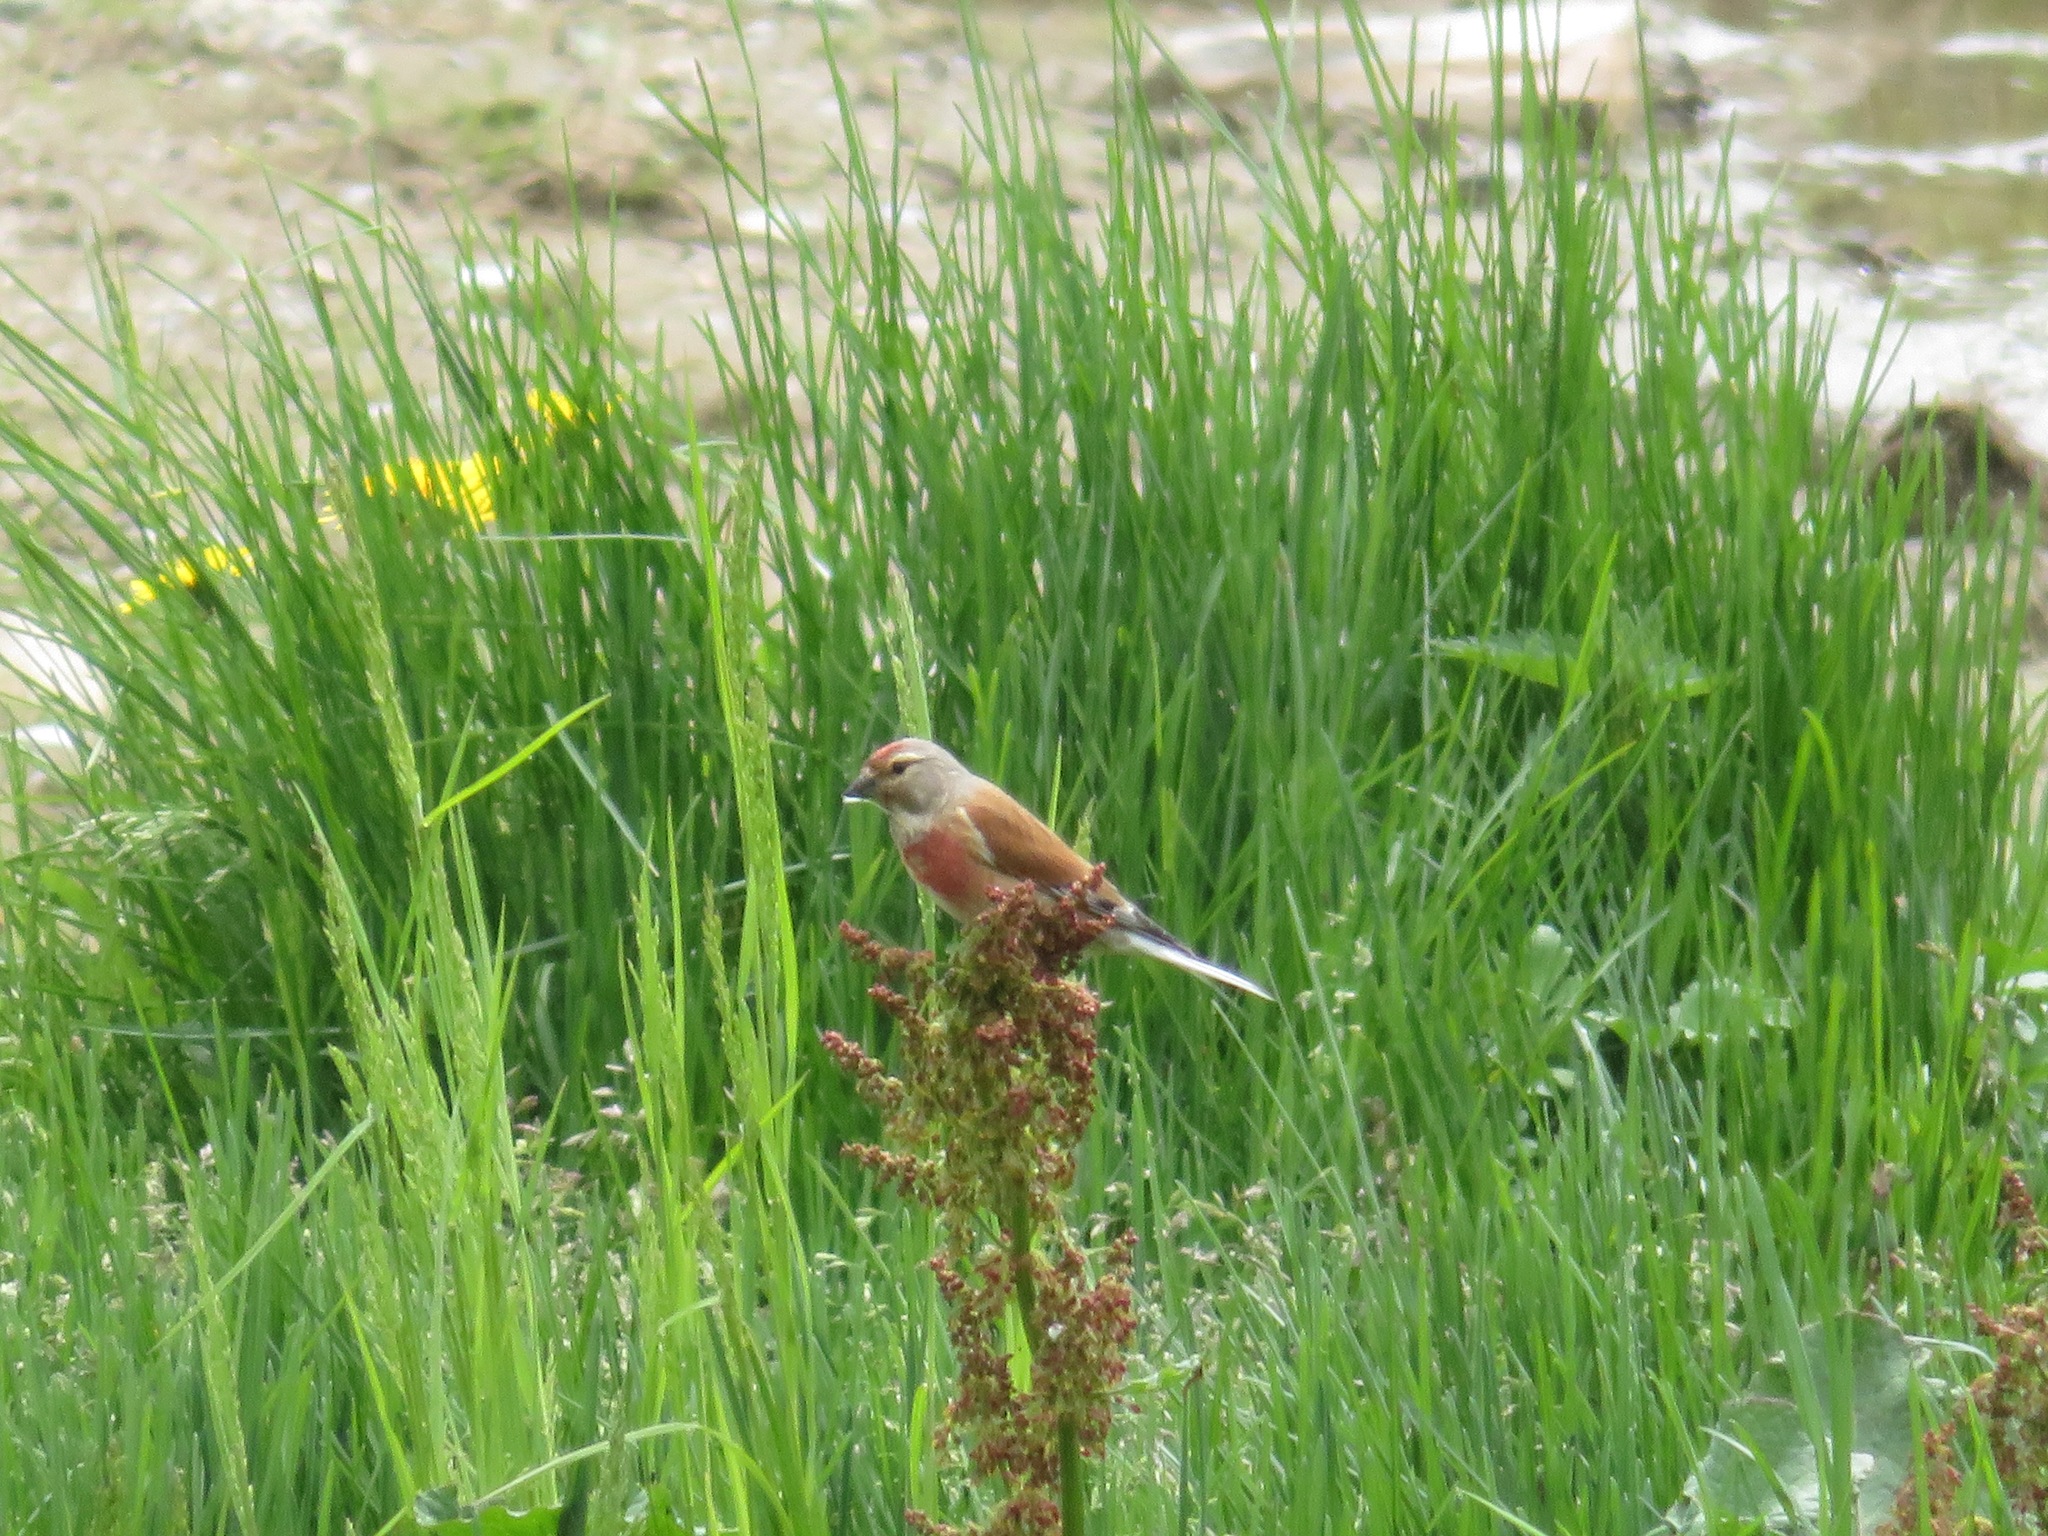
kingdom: Animalia
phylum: Chordata
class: Aves
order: Passeriformes
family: Fringillidae
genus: Linaria
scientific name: Linaria cannabina
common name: Common linnet
